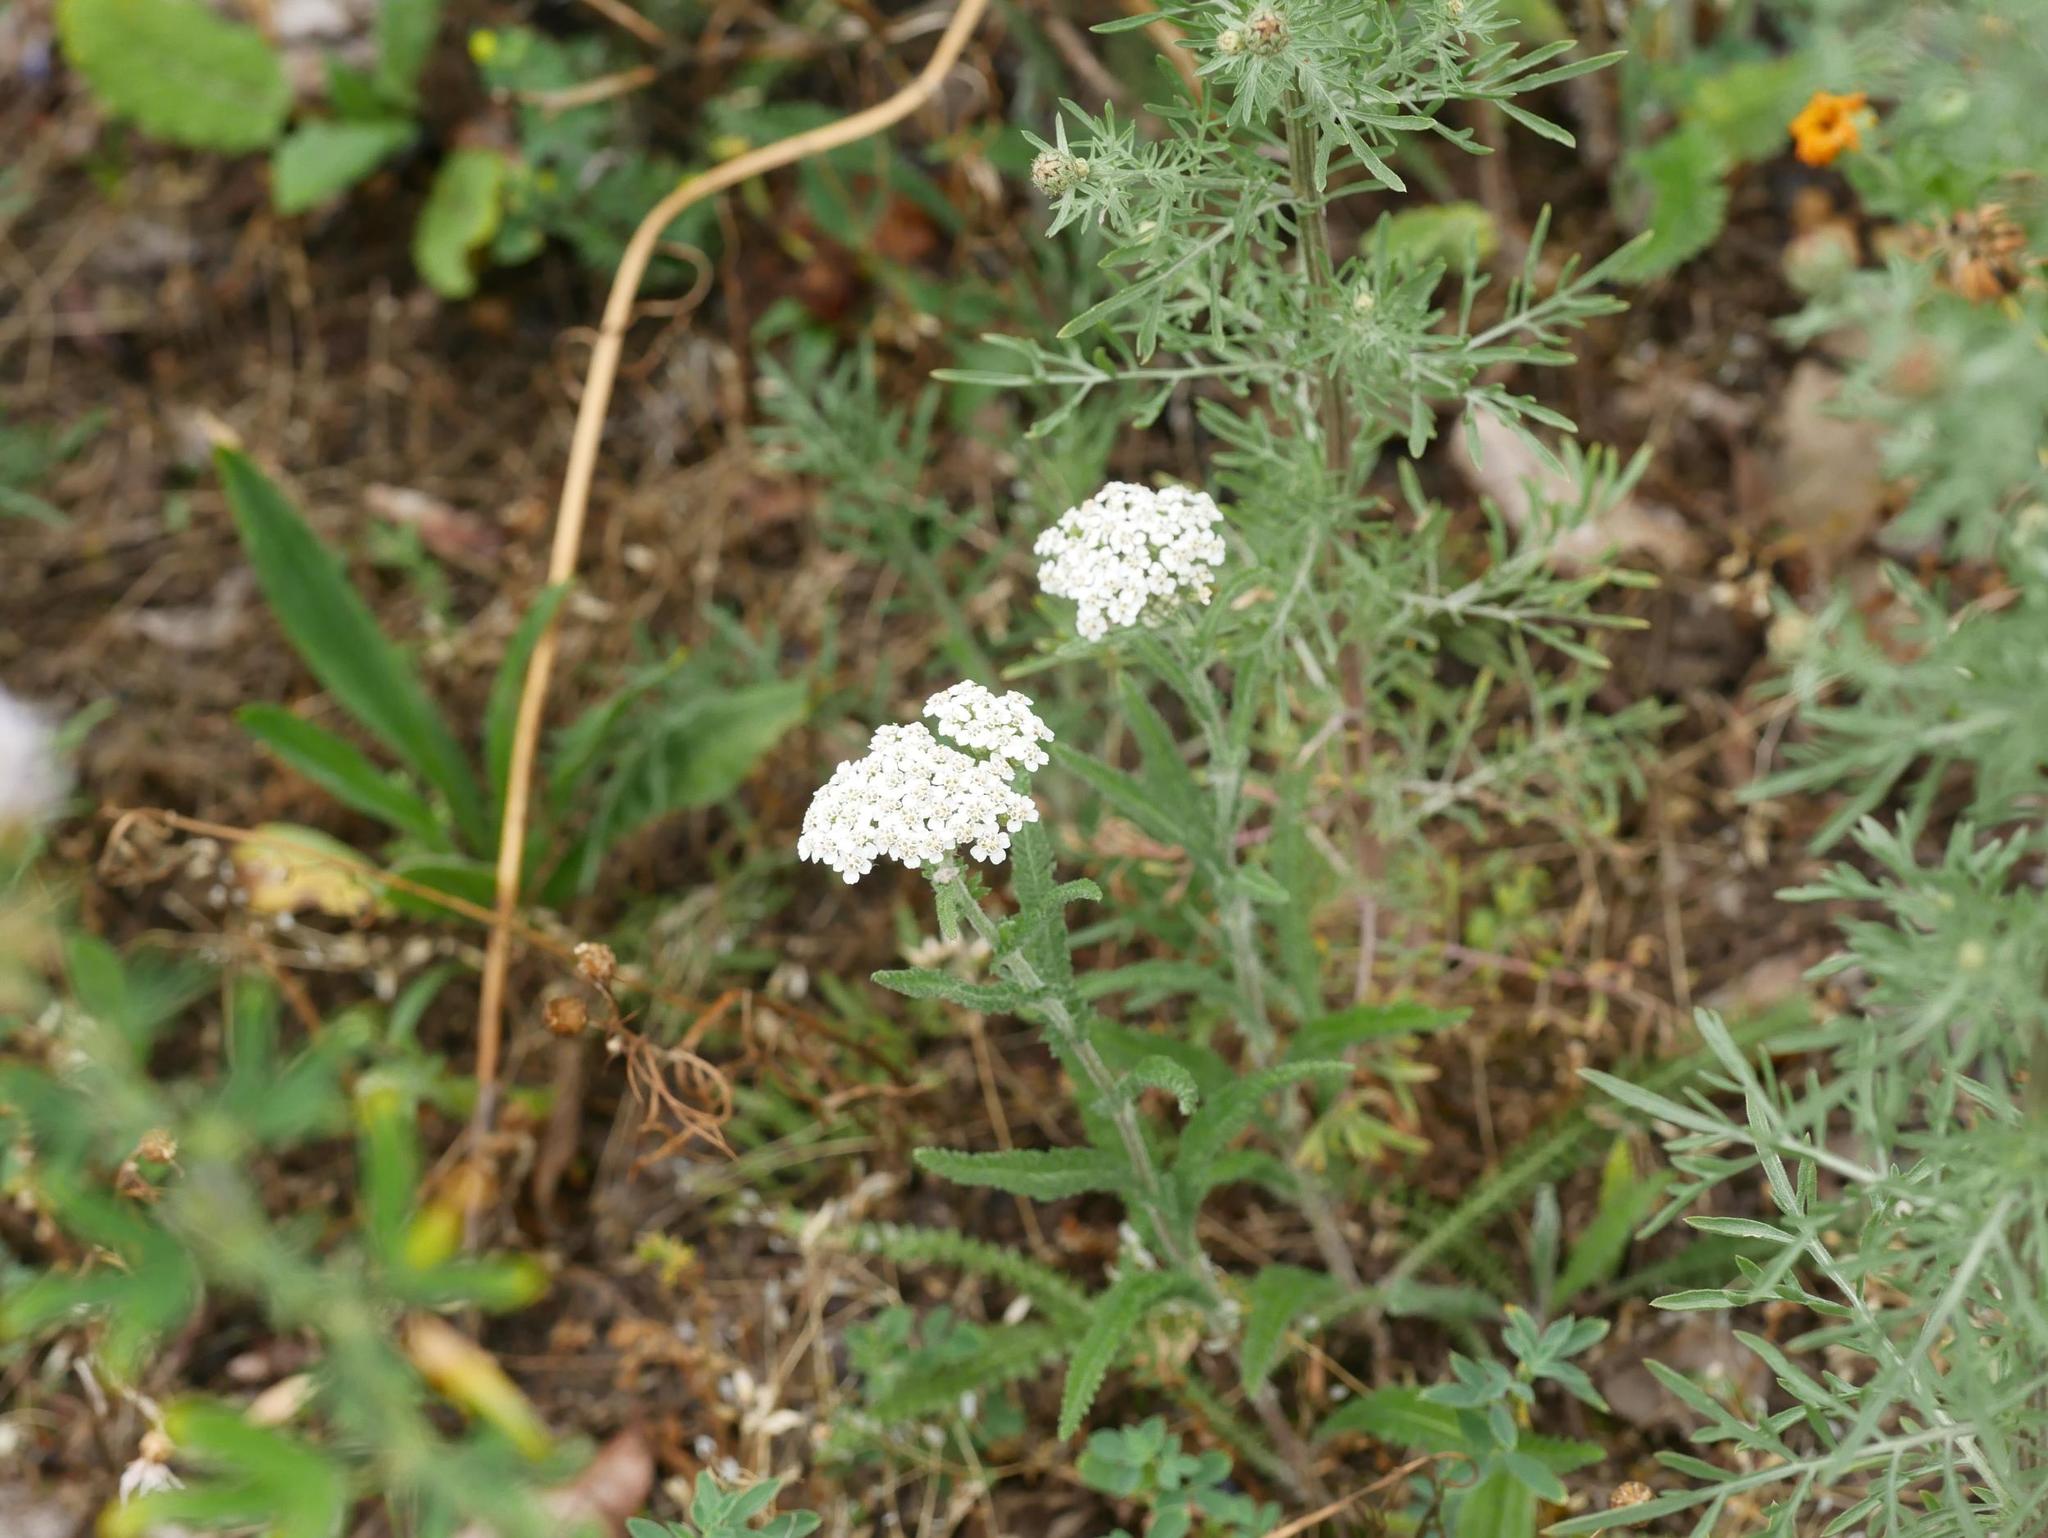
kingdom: Plantae
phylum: Tracheophyta
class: Magnoliopsida
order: Asterales
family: Asteraceae
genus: Achillea
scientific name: Achillea millefolium
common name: Yarrow
